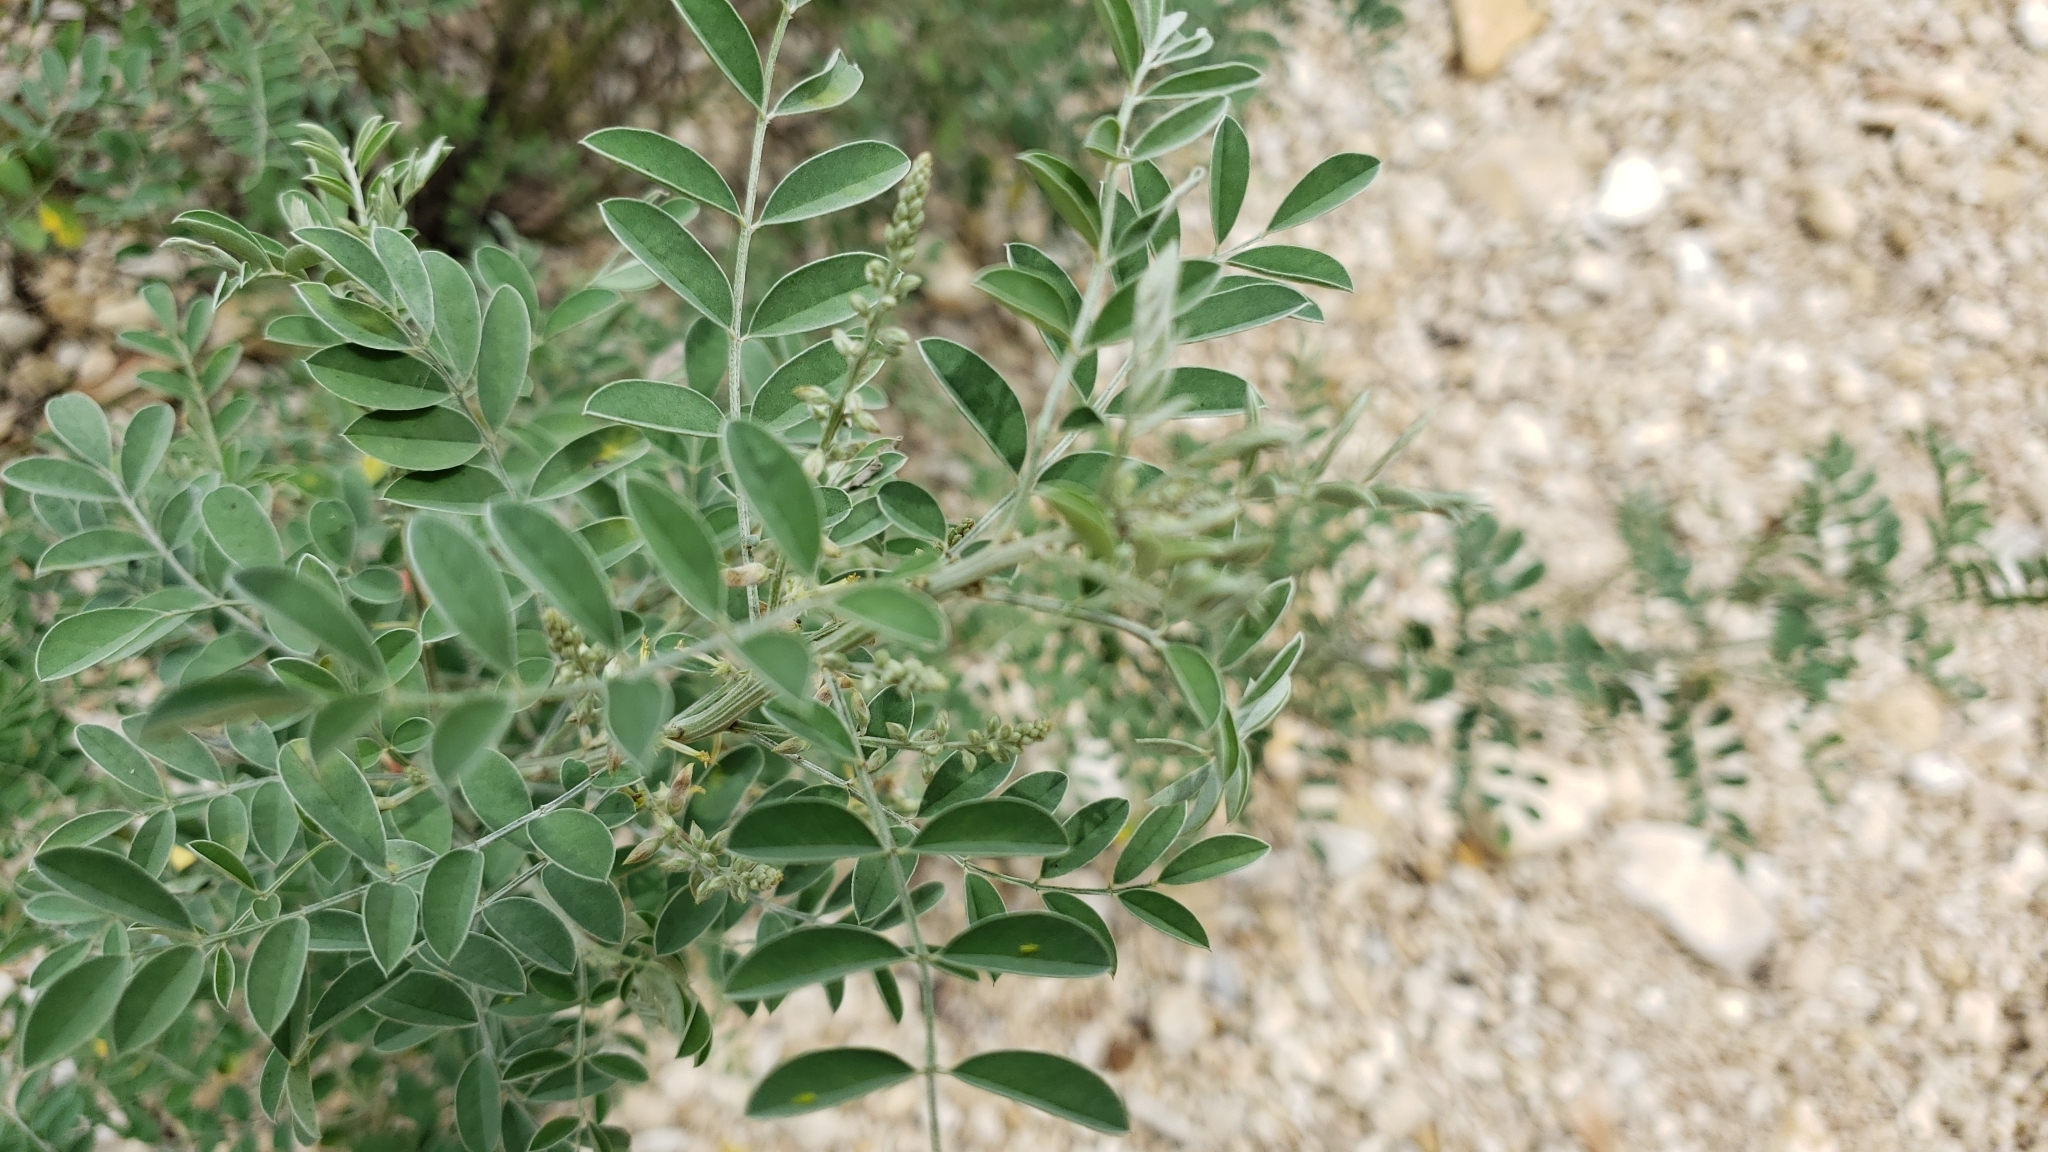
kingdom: Plantae
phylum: Tracheophyta
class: Magnoliopsida
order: Fabales
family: Fabaceae
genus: Indigofera
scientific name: Indigofera lindheimeriana
